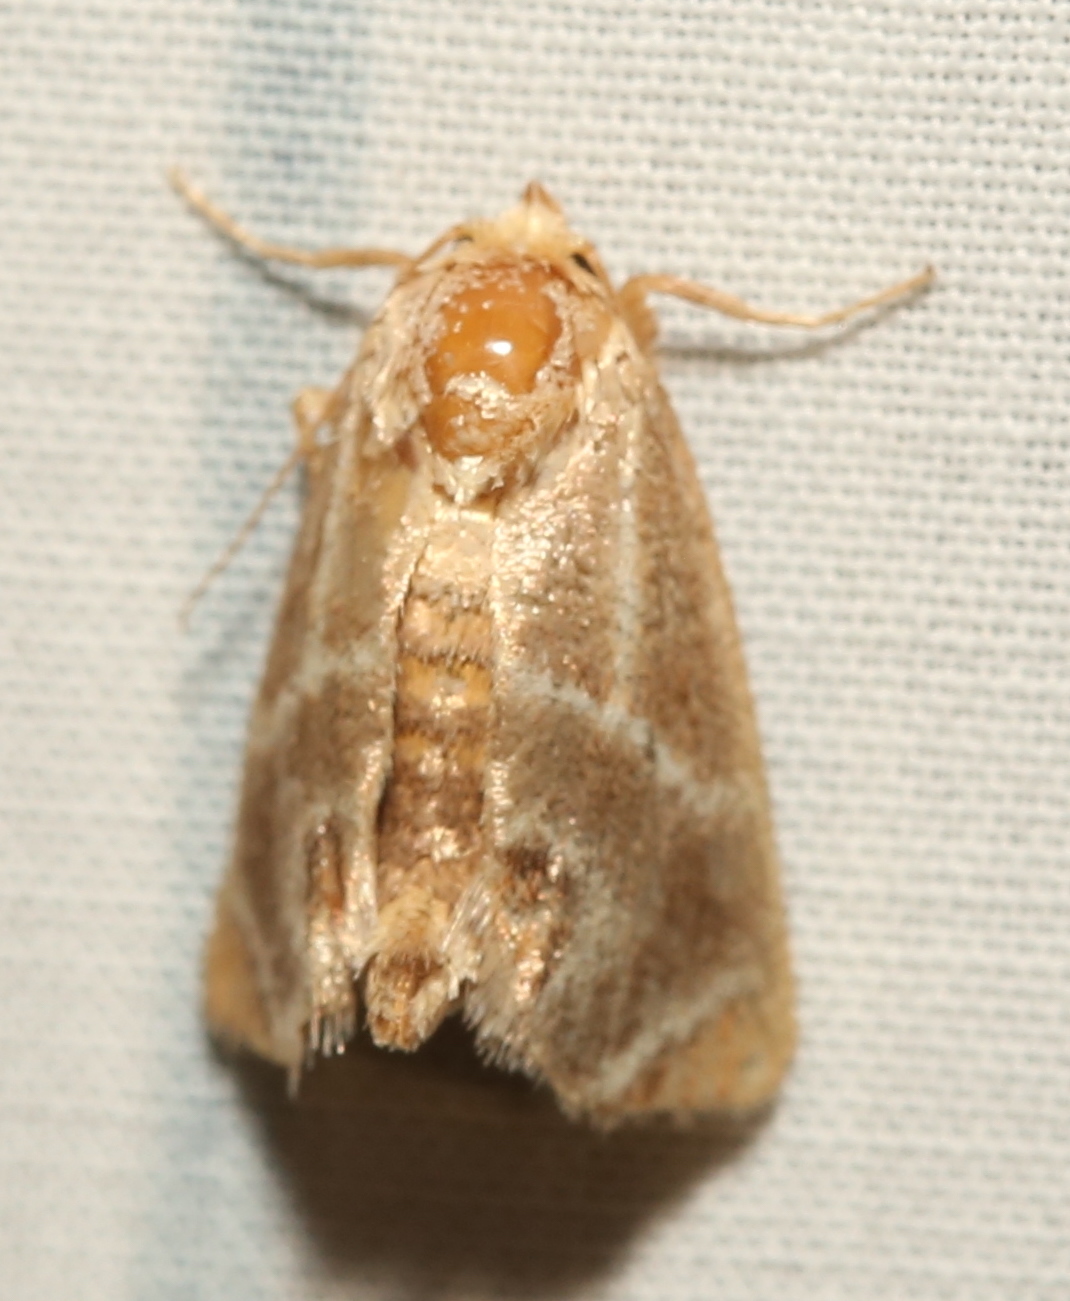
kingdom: Animalia
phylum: Arthropoda
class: Insecta
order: Lepidoptera
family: Limacodidae
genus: Apoda
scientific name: Apoda biguttata
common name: Shagreened slug moth
